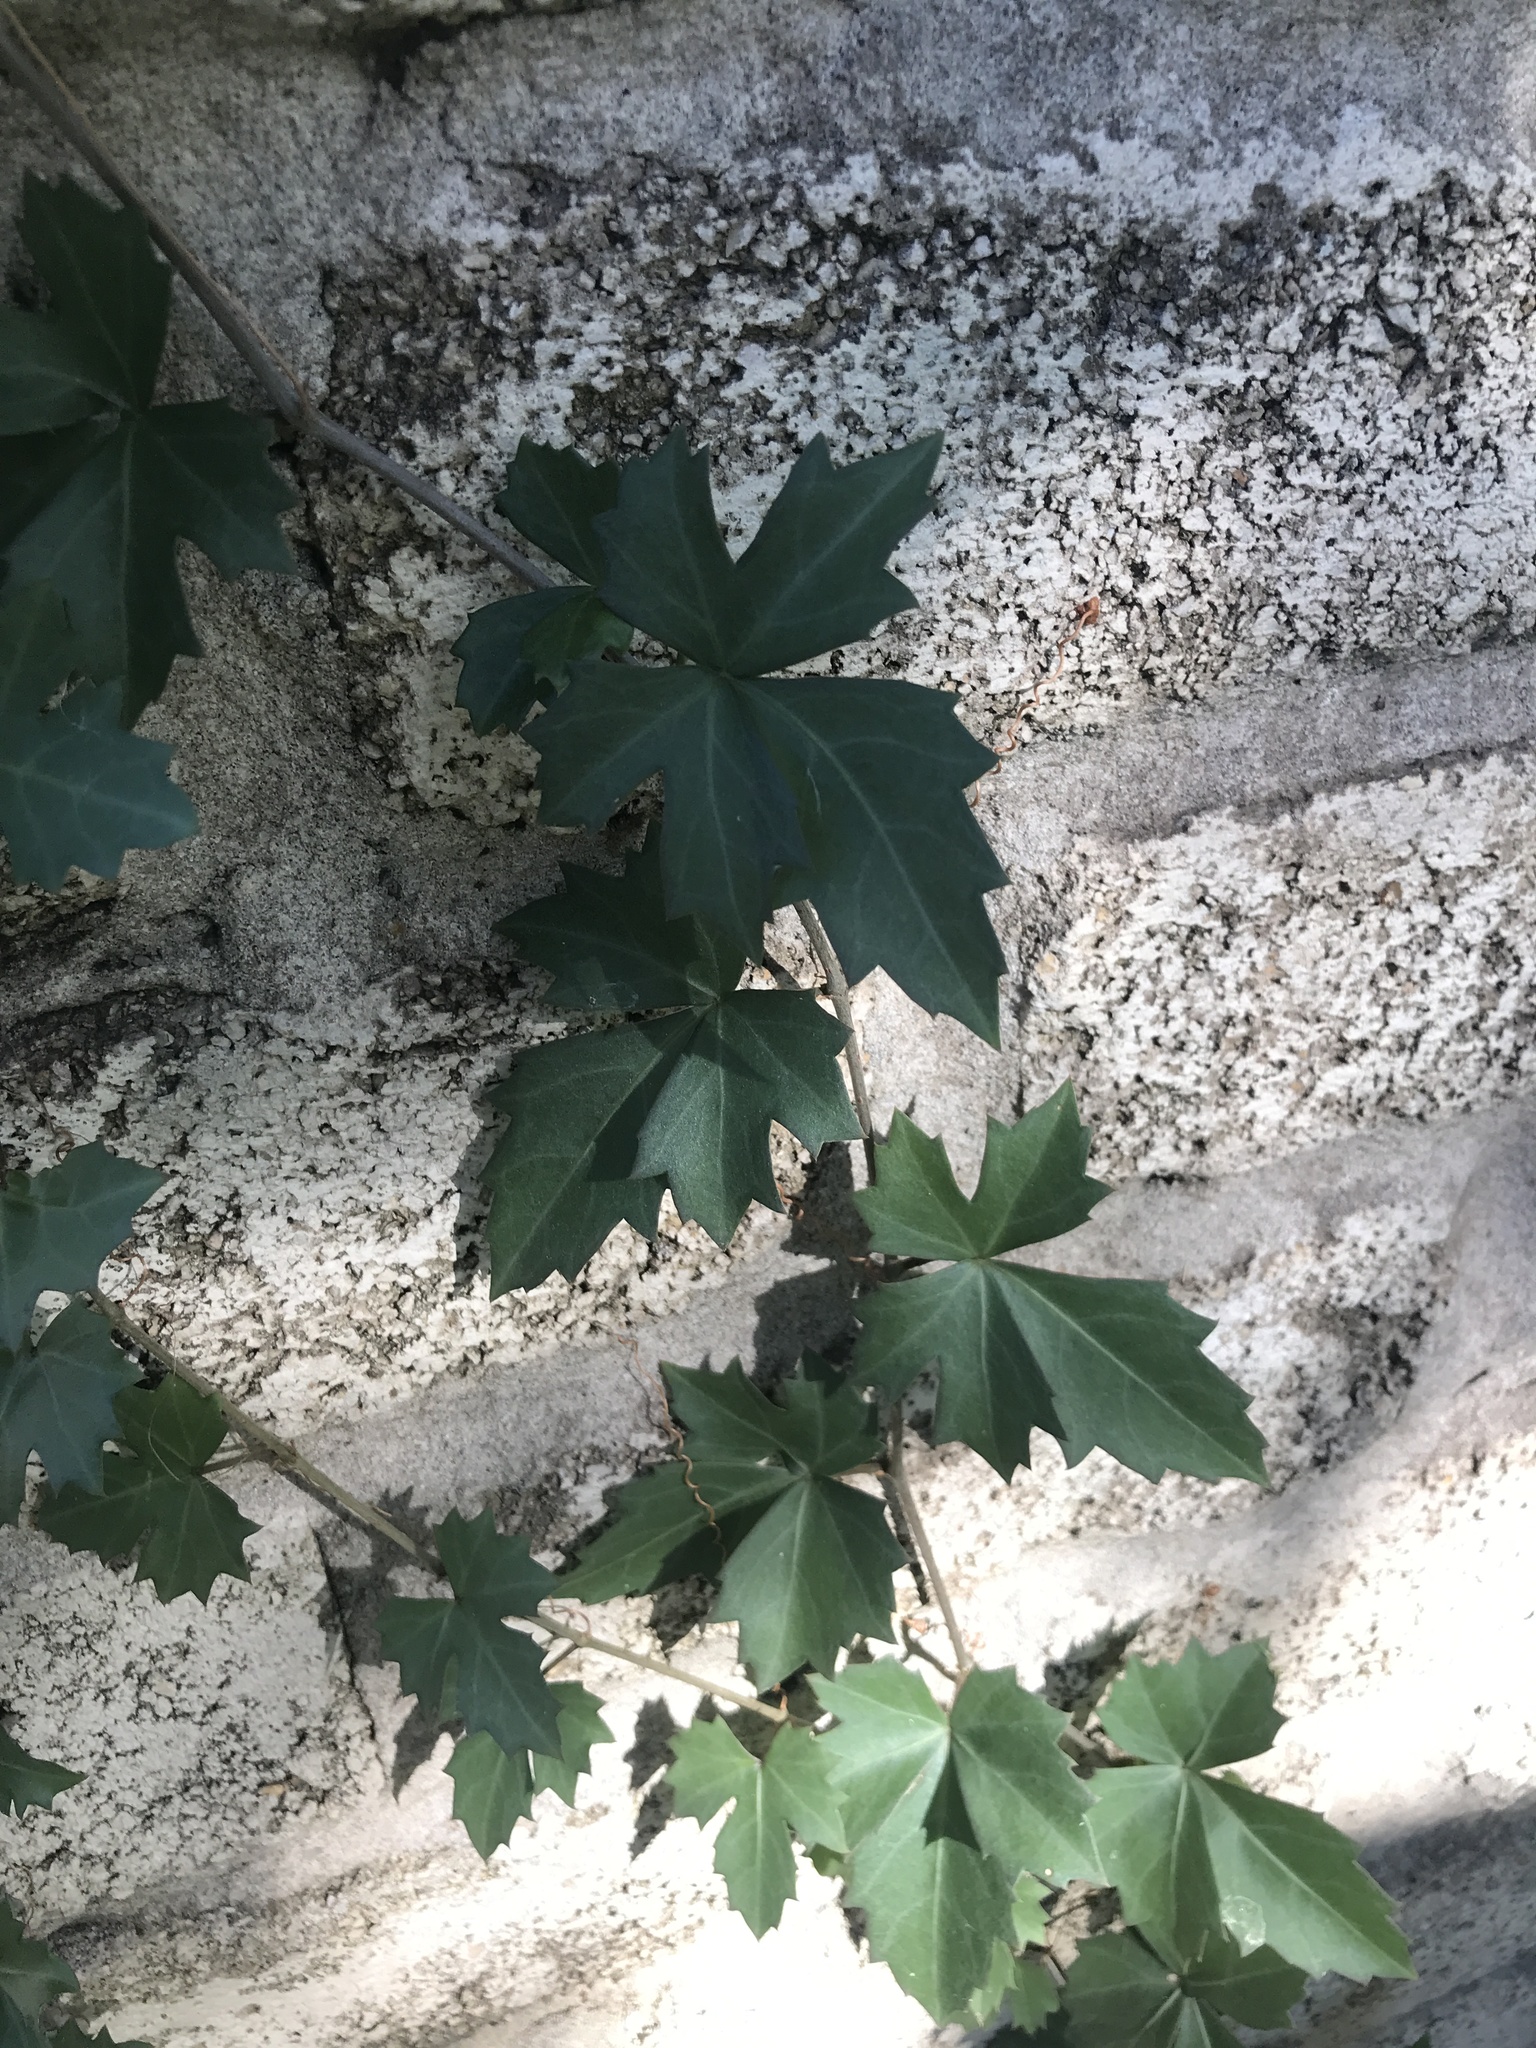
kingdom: Plantae
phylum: Tracheophyta
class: Magnoliopsida
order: Vitales
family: Vitaceae
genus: Cissus
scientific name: Cissus trifoliata
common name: Vine-sorrel
